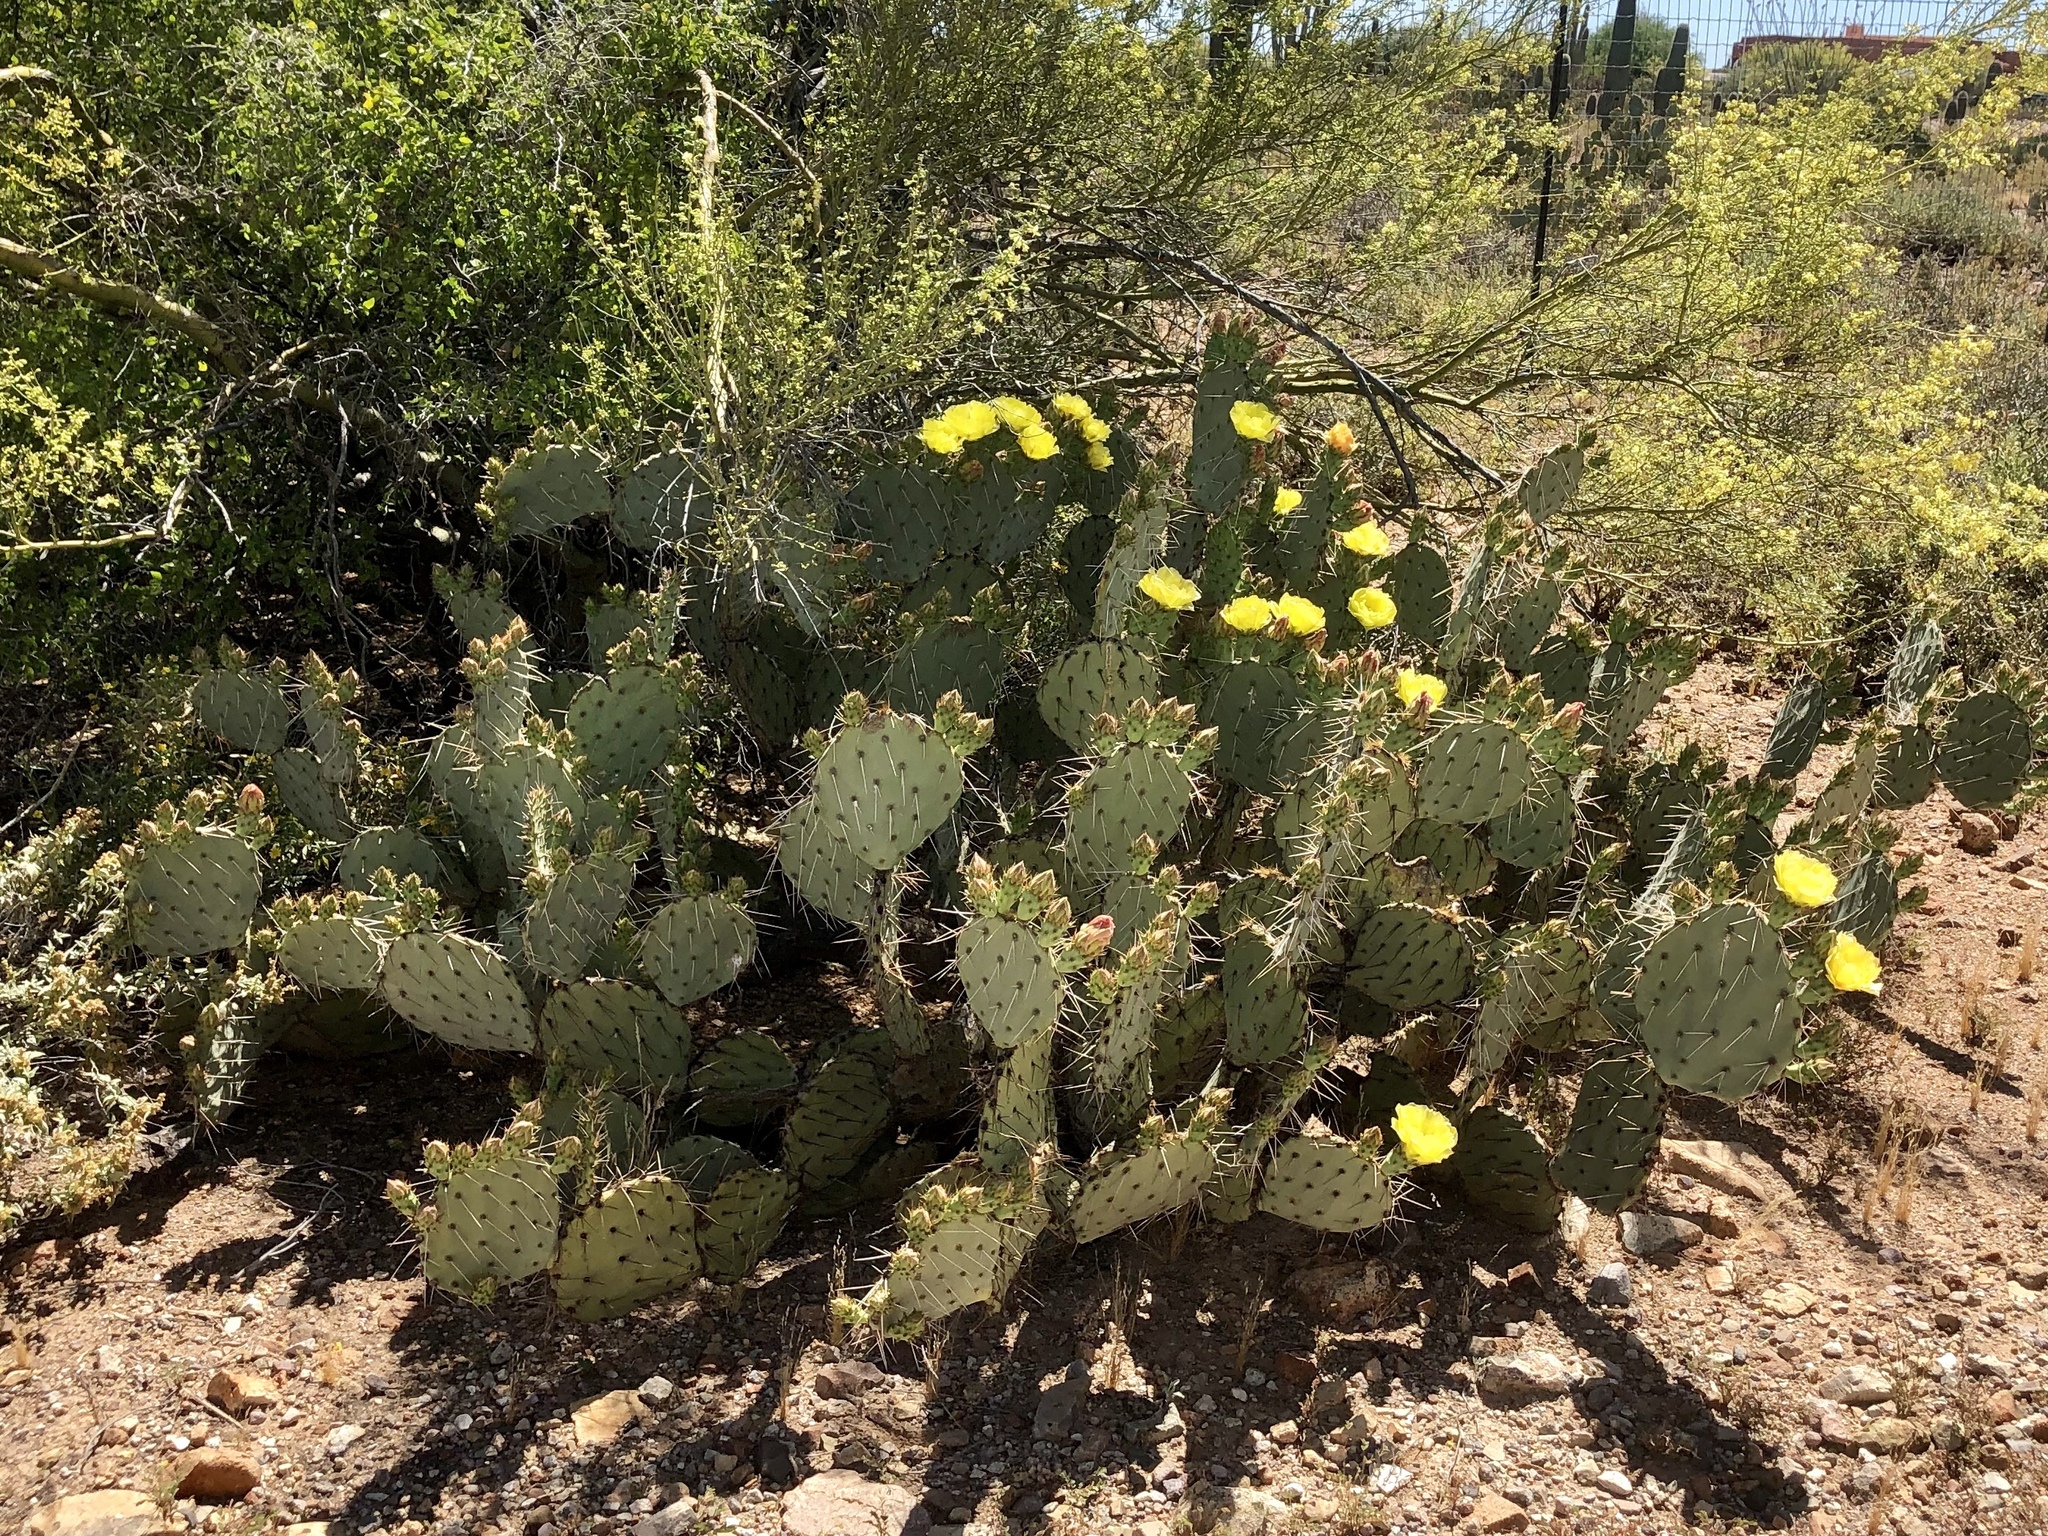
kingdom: Plantae
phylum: Tracheophyta
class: Magnoliopsida
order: Caryophyllales
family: Cactaceae
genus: Opuntia
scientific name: Opuntia engelmannii
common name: Cactus-apple
